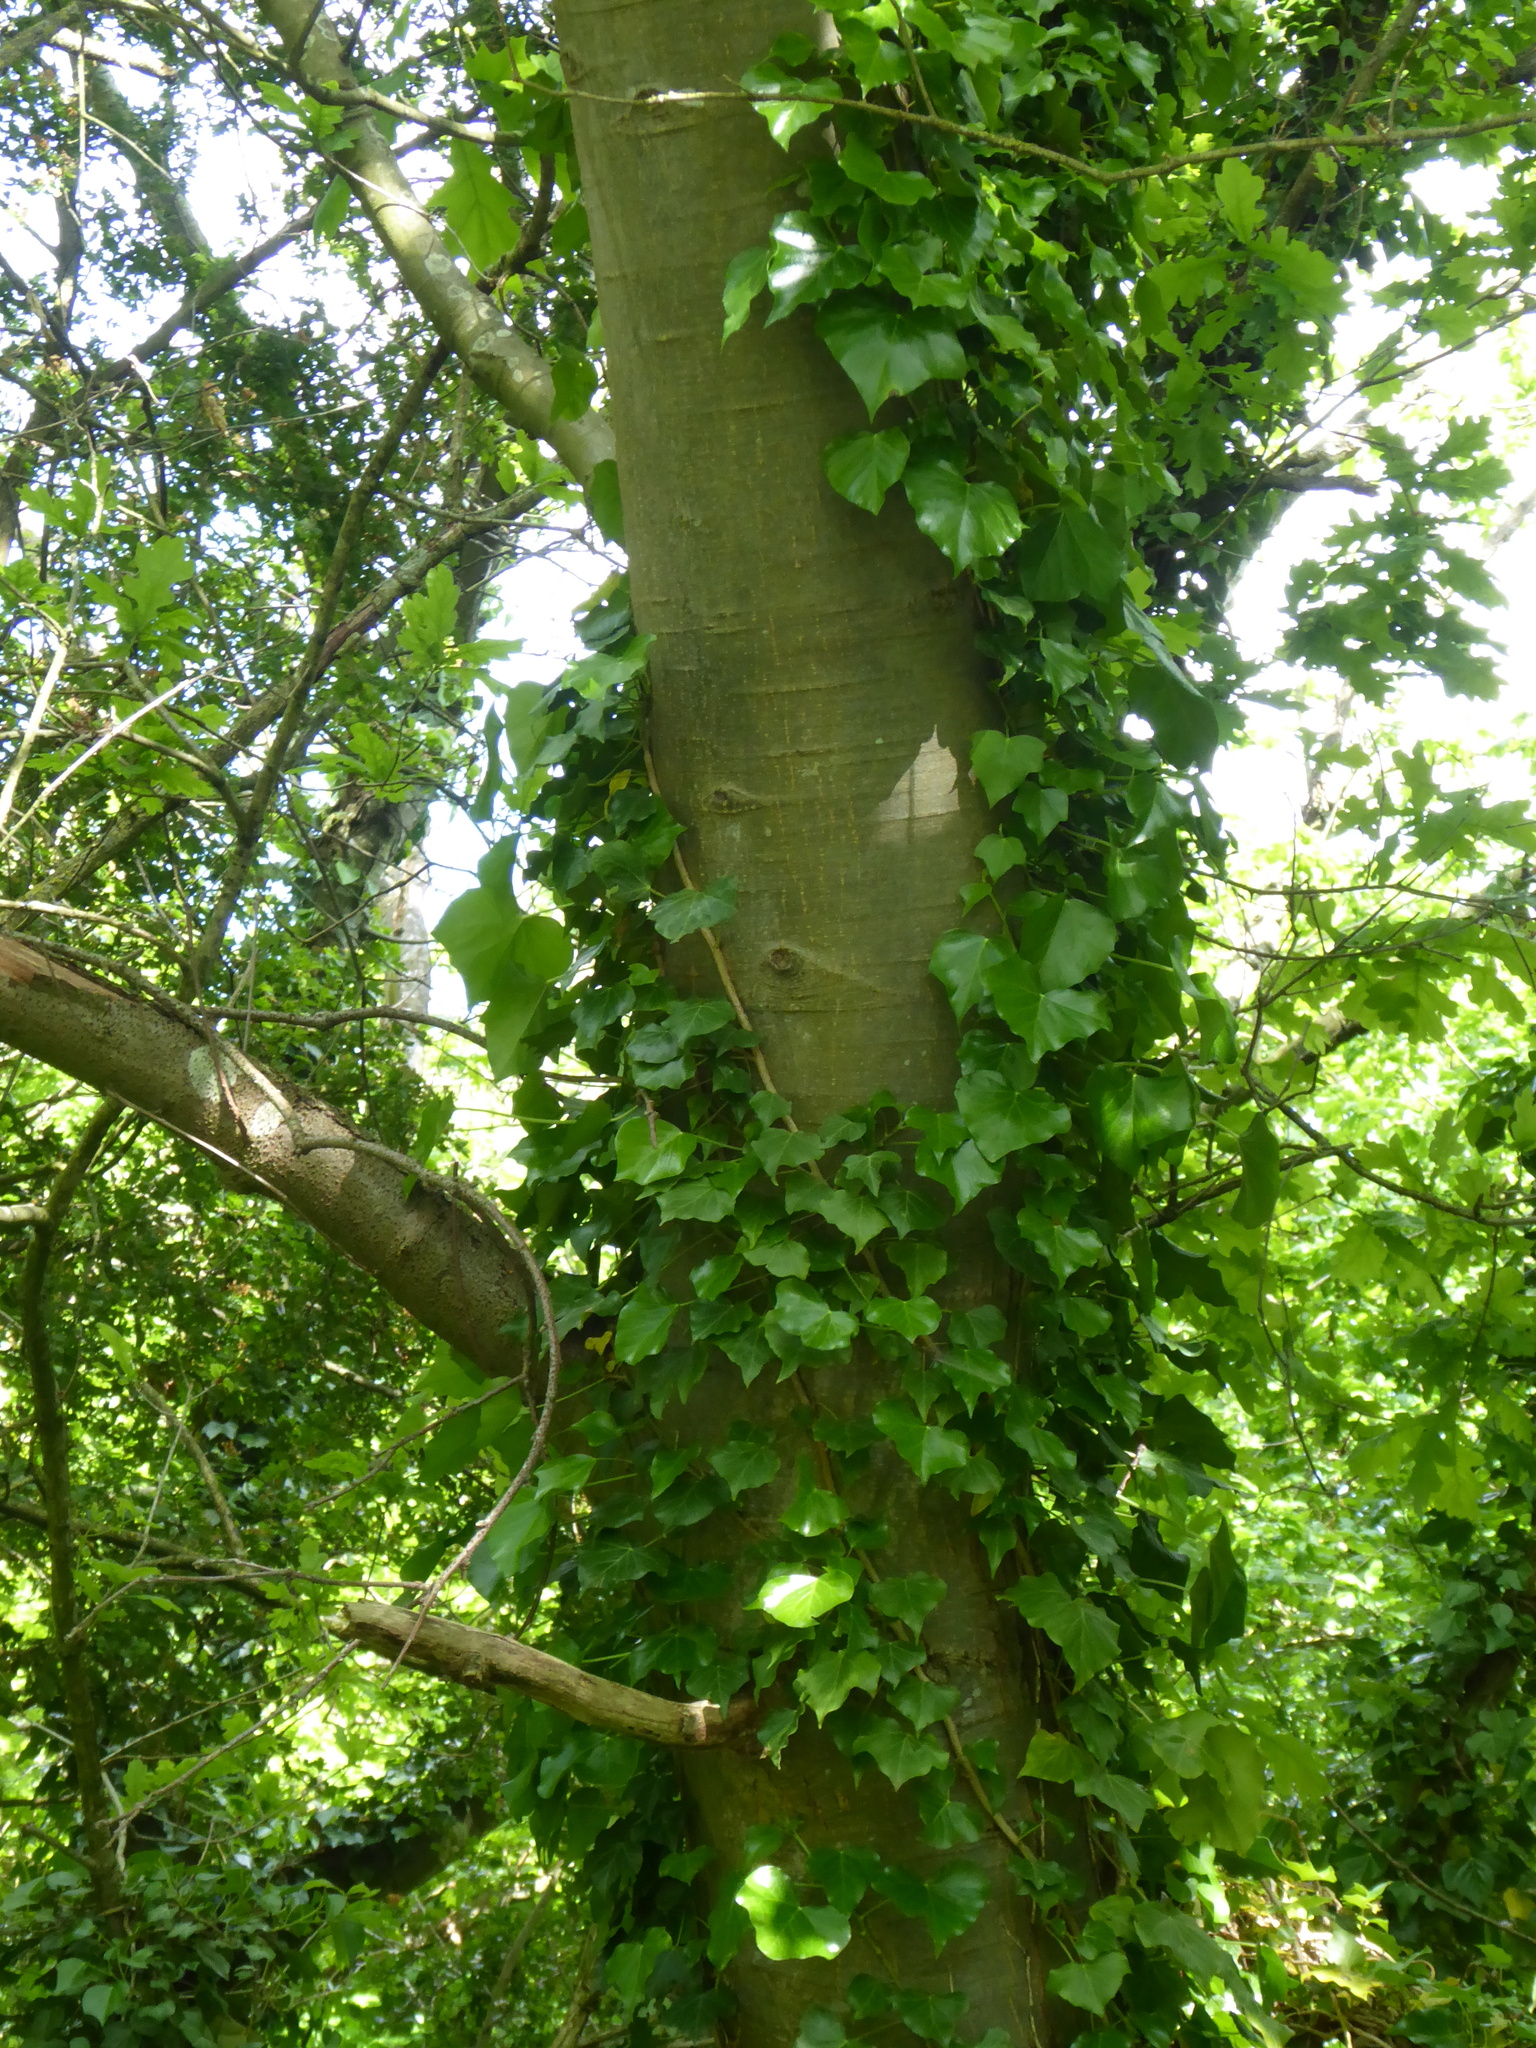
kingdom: Plantae
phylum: Tracheophyta
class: Magnoliopsida
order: Fagales
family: Fagaceae
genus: Quercus
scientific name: Quercus rubra
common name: Red oak
